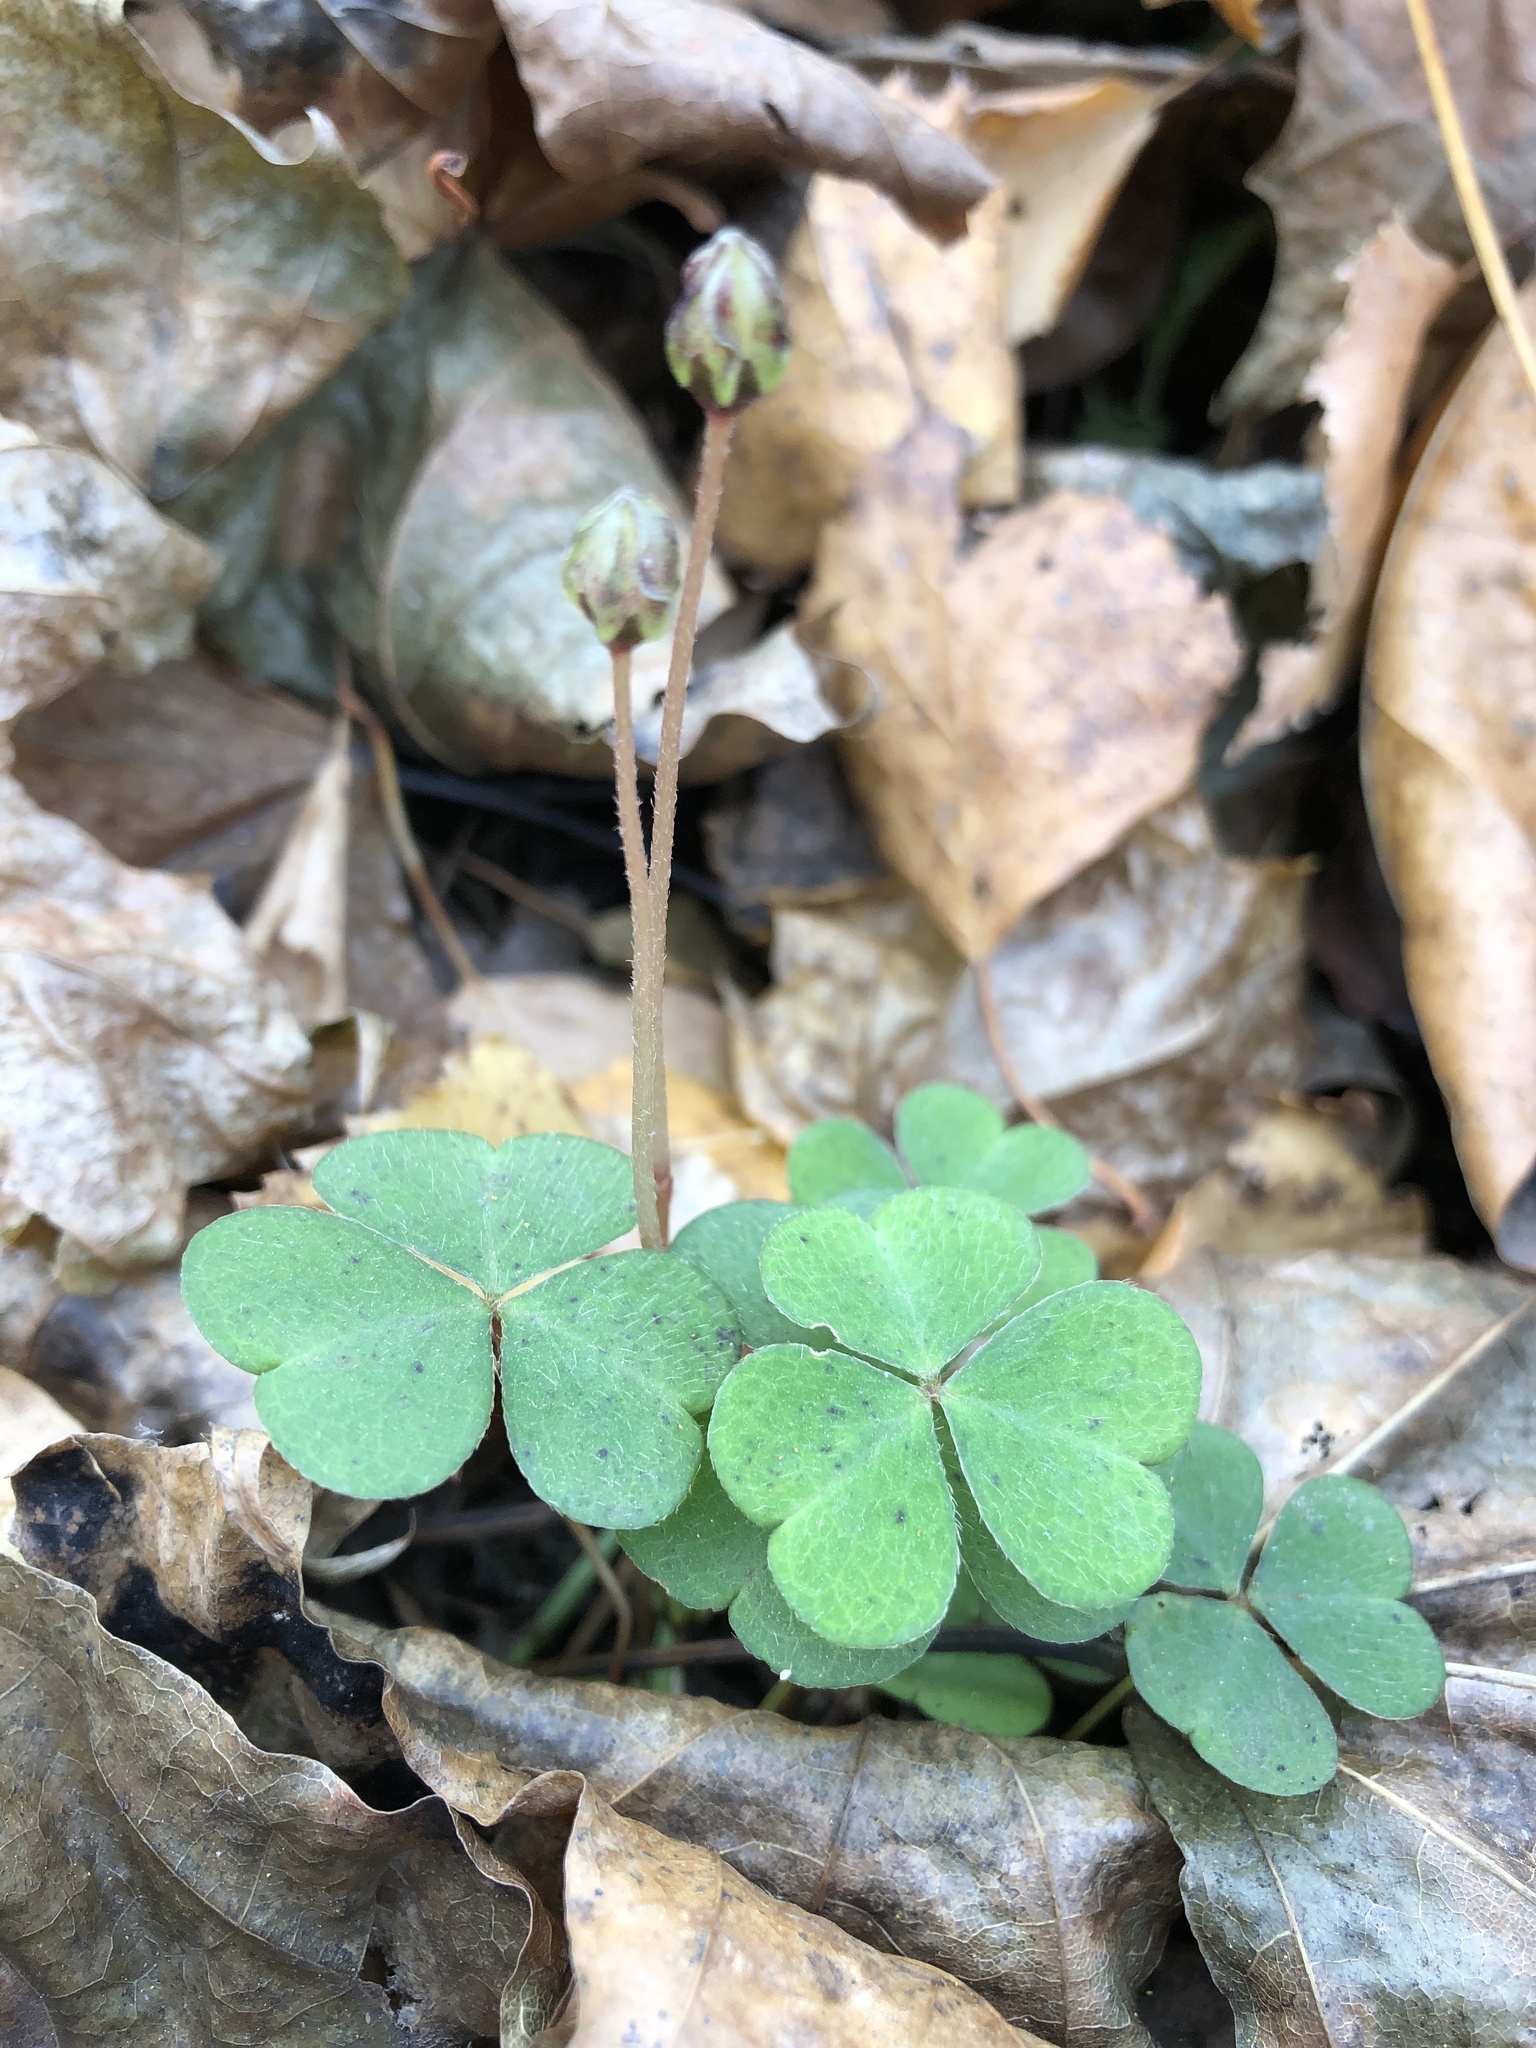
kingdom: Plantae
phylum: Tracheophyta
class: Magnoliopsida
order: Oxalidales
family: Oxalidaceae
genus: Oxalis
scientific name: Oxalis acetosella
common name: Wood-sorrel
